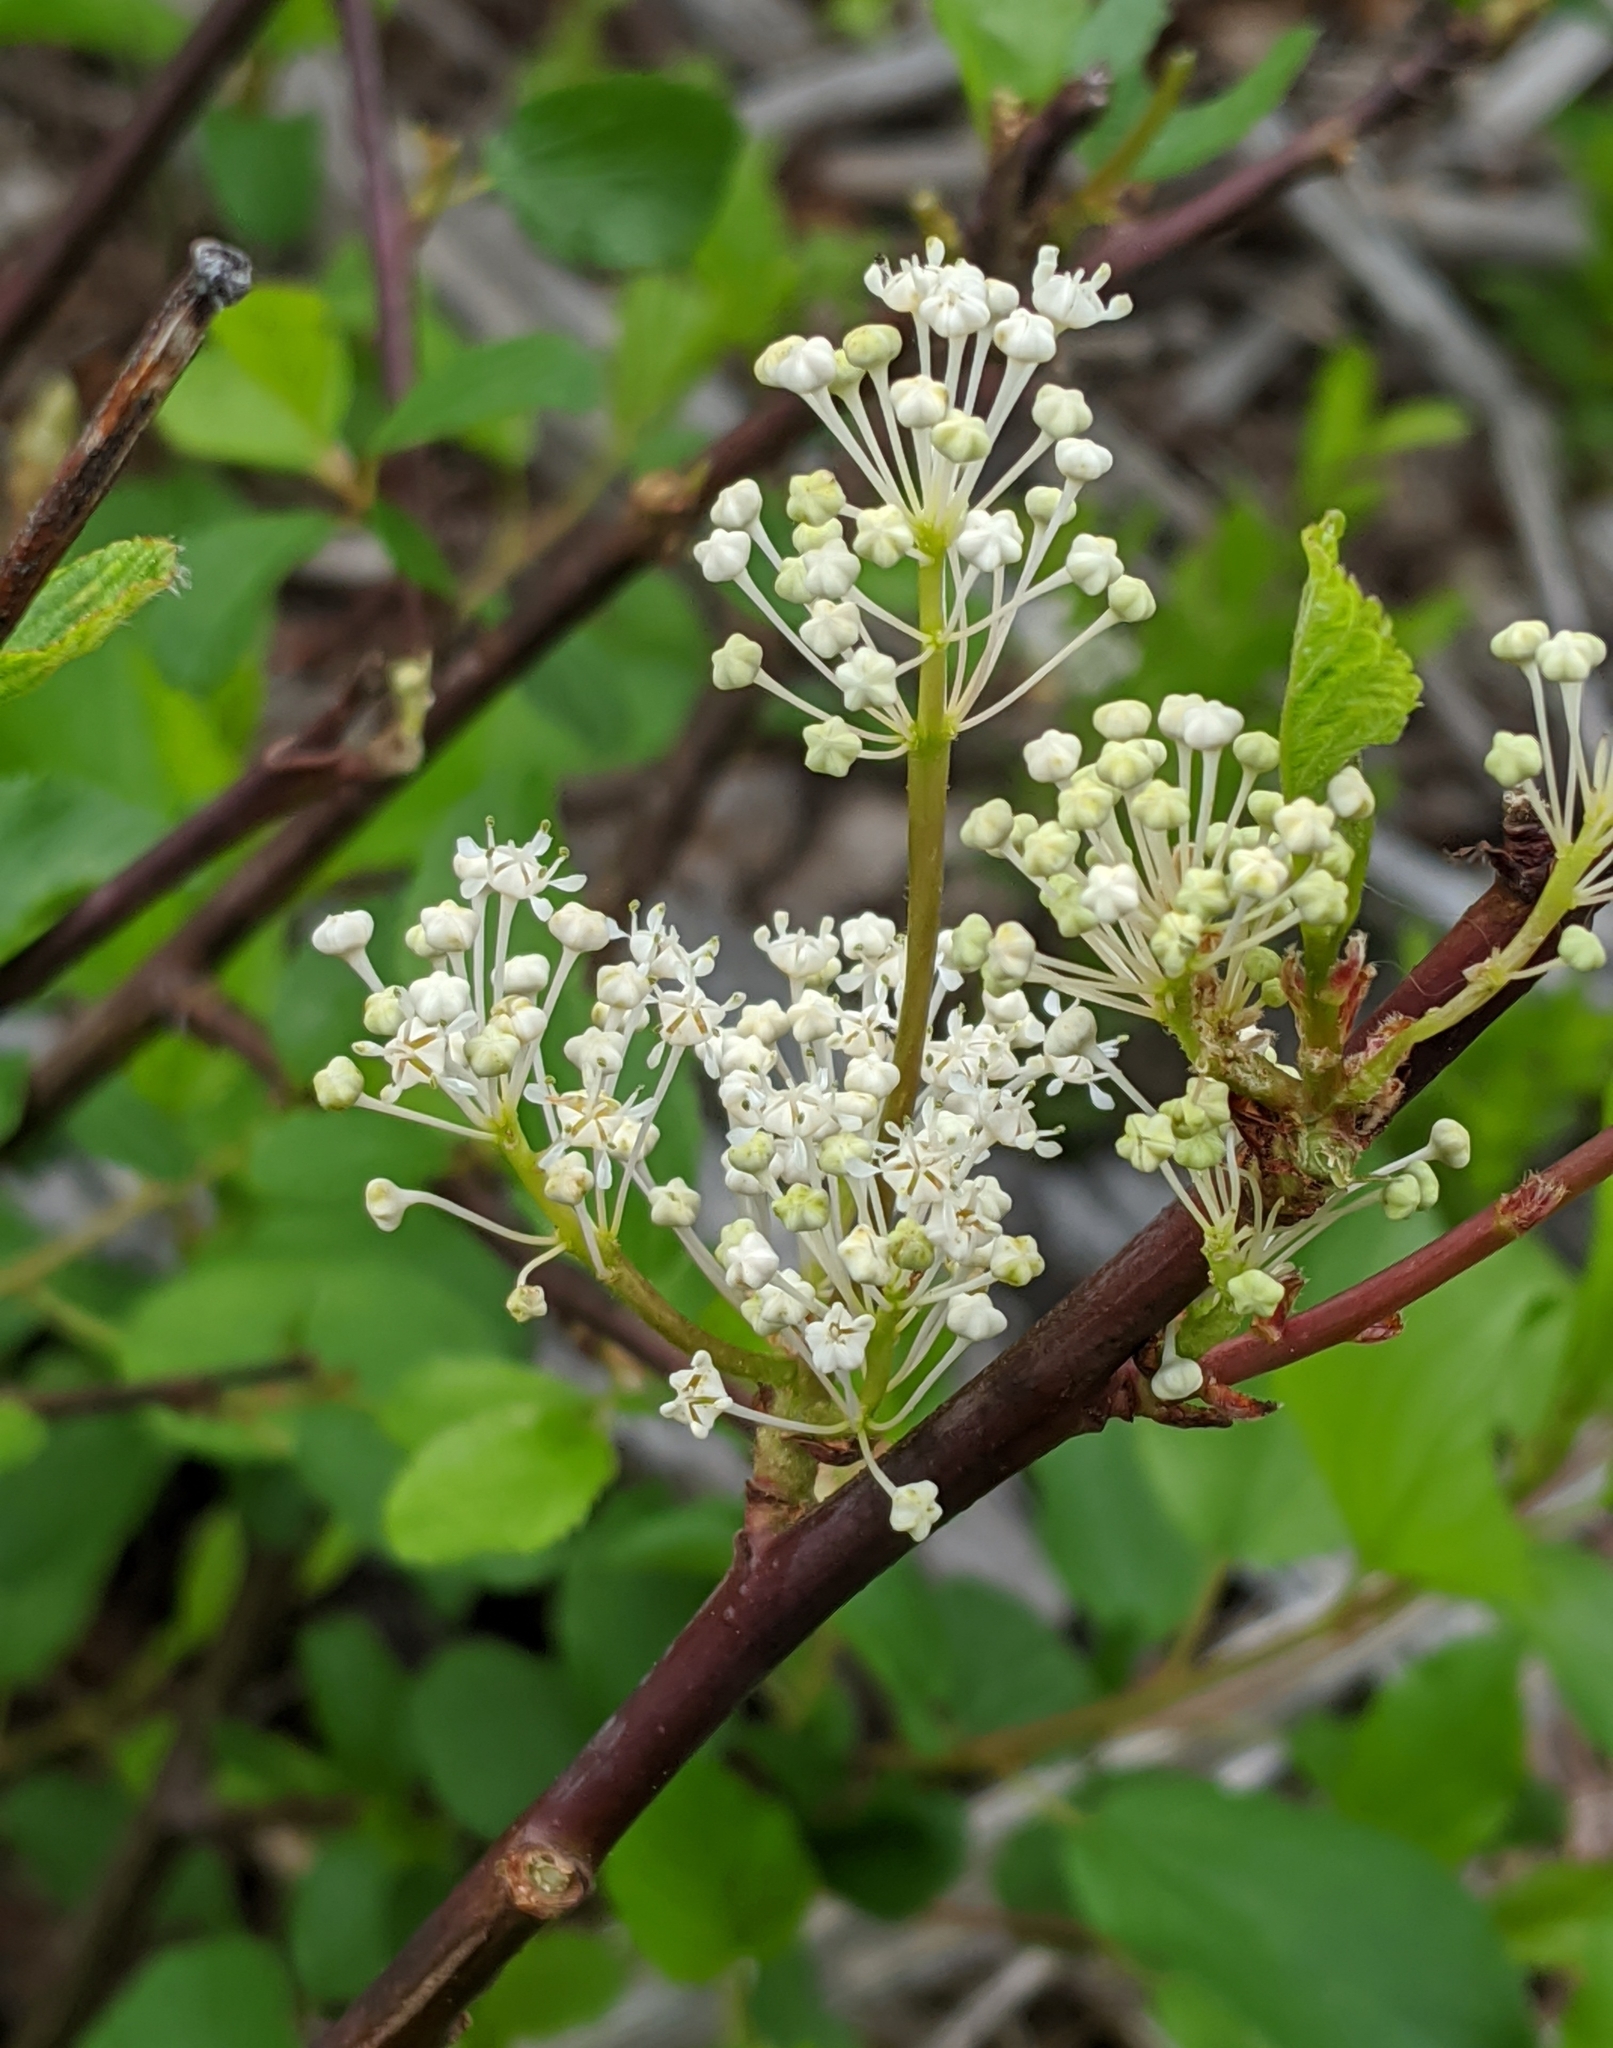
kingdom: Plantae
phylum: Tracheophyta
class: Magnoliopsida
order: Rosales
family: Rhamnaceae
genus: Ceanothus
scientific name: Ceanothus sanguineus
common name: Teatree
